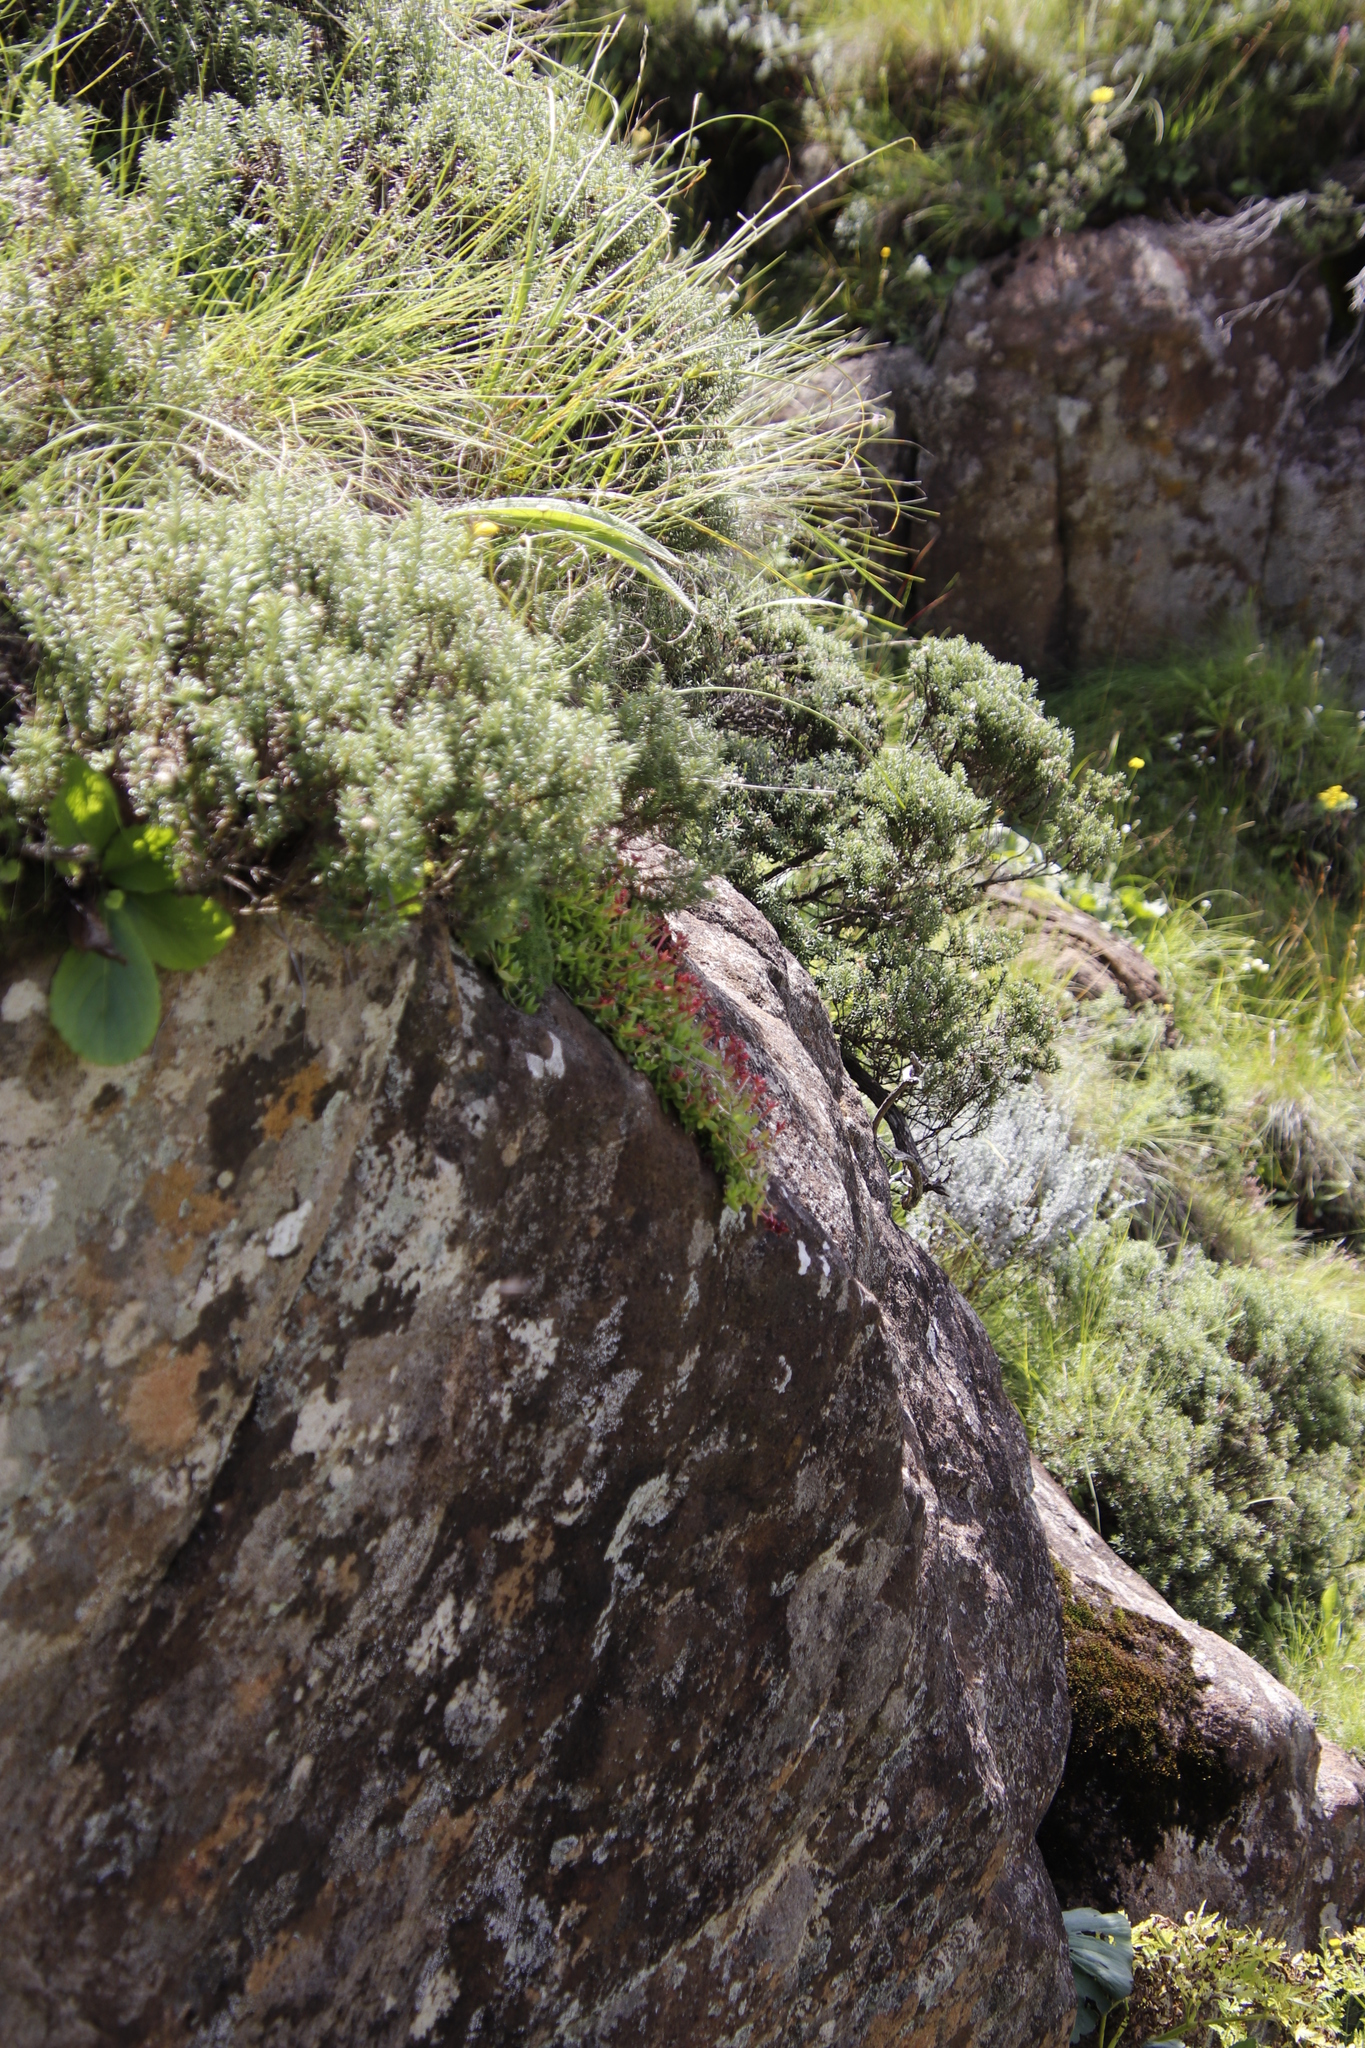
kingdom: Plantae
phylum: Tracheophyta
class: Magnoliopsida
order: Caryophyllales
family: Aizoaceae
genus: Delosperma
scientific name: Delosperma crassuloides
